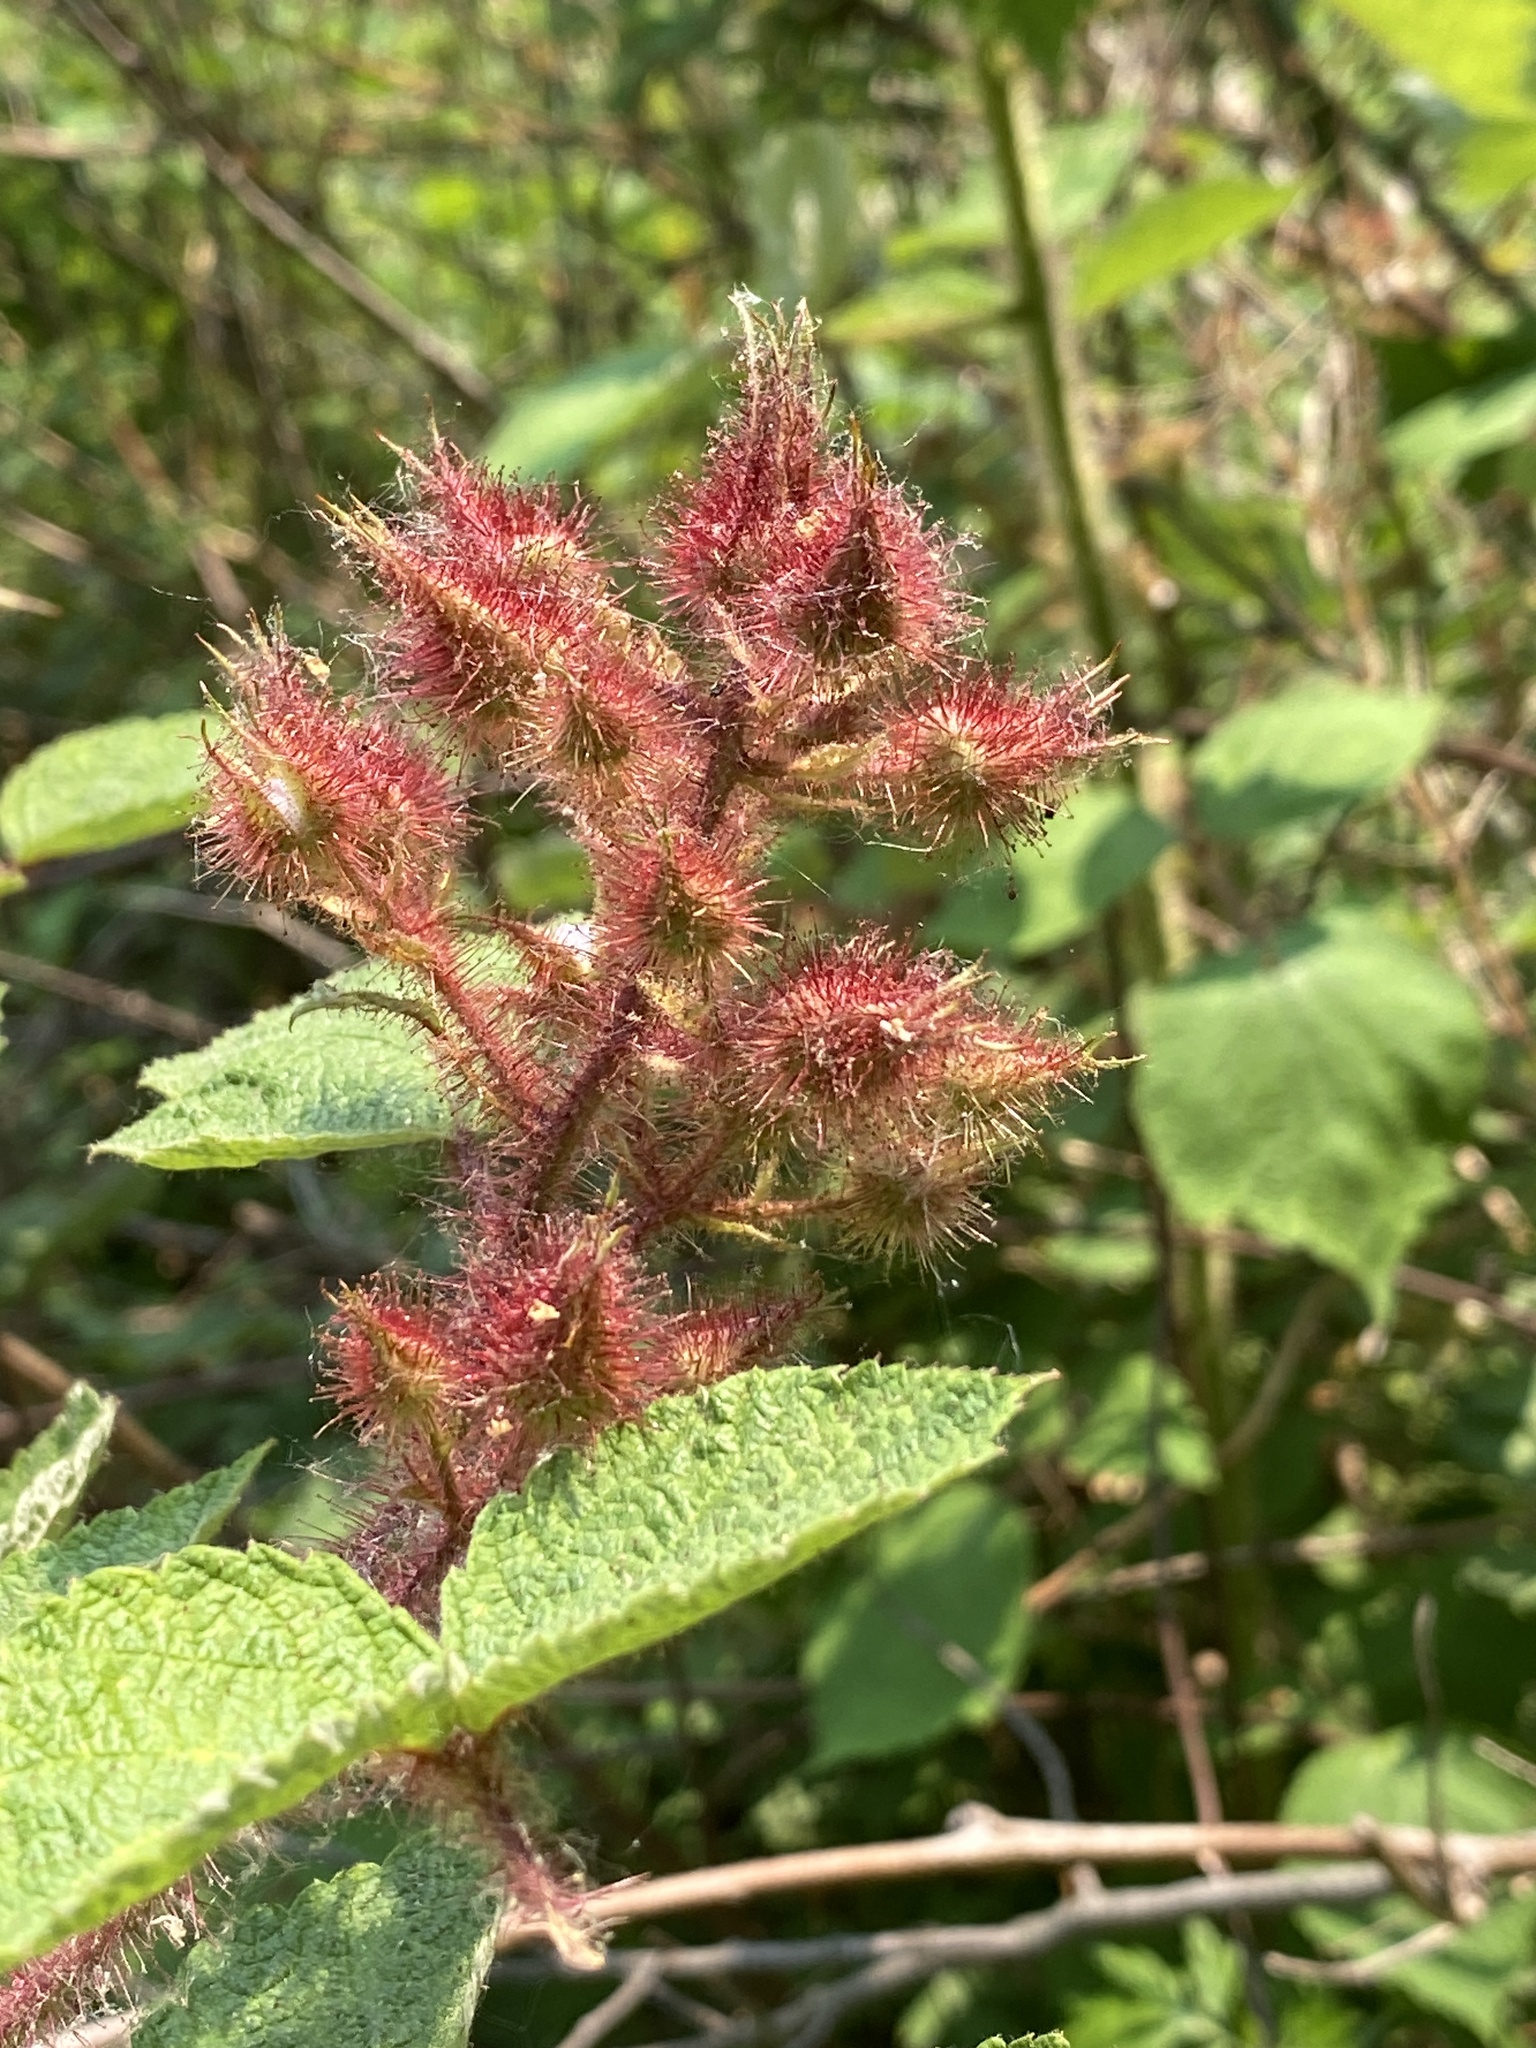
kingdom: Plantae
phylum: Tracheophyta
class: Magnoliopsida
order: Rosales
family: Rosaceae
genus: Rubus
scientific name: Rubus phoenicolasius
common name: Japanese wineberry
